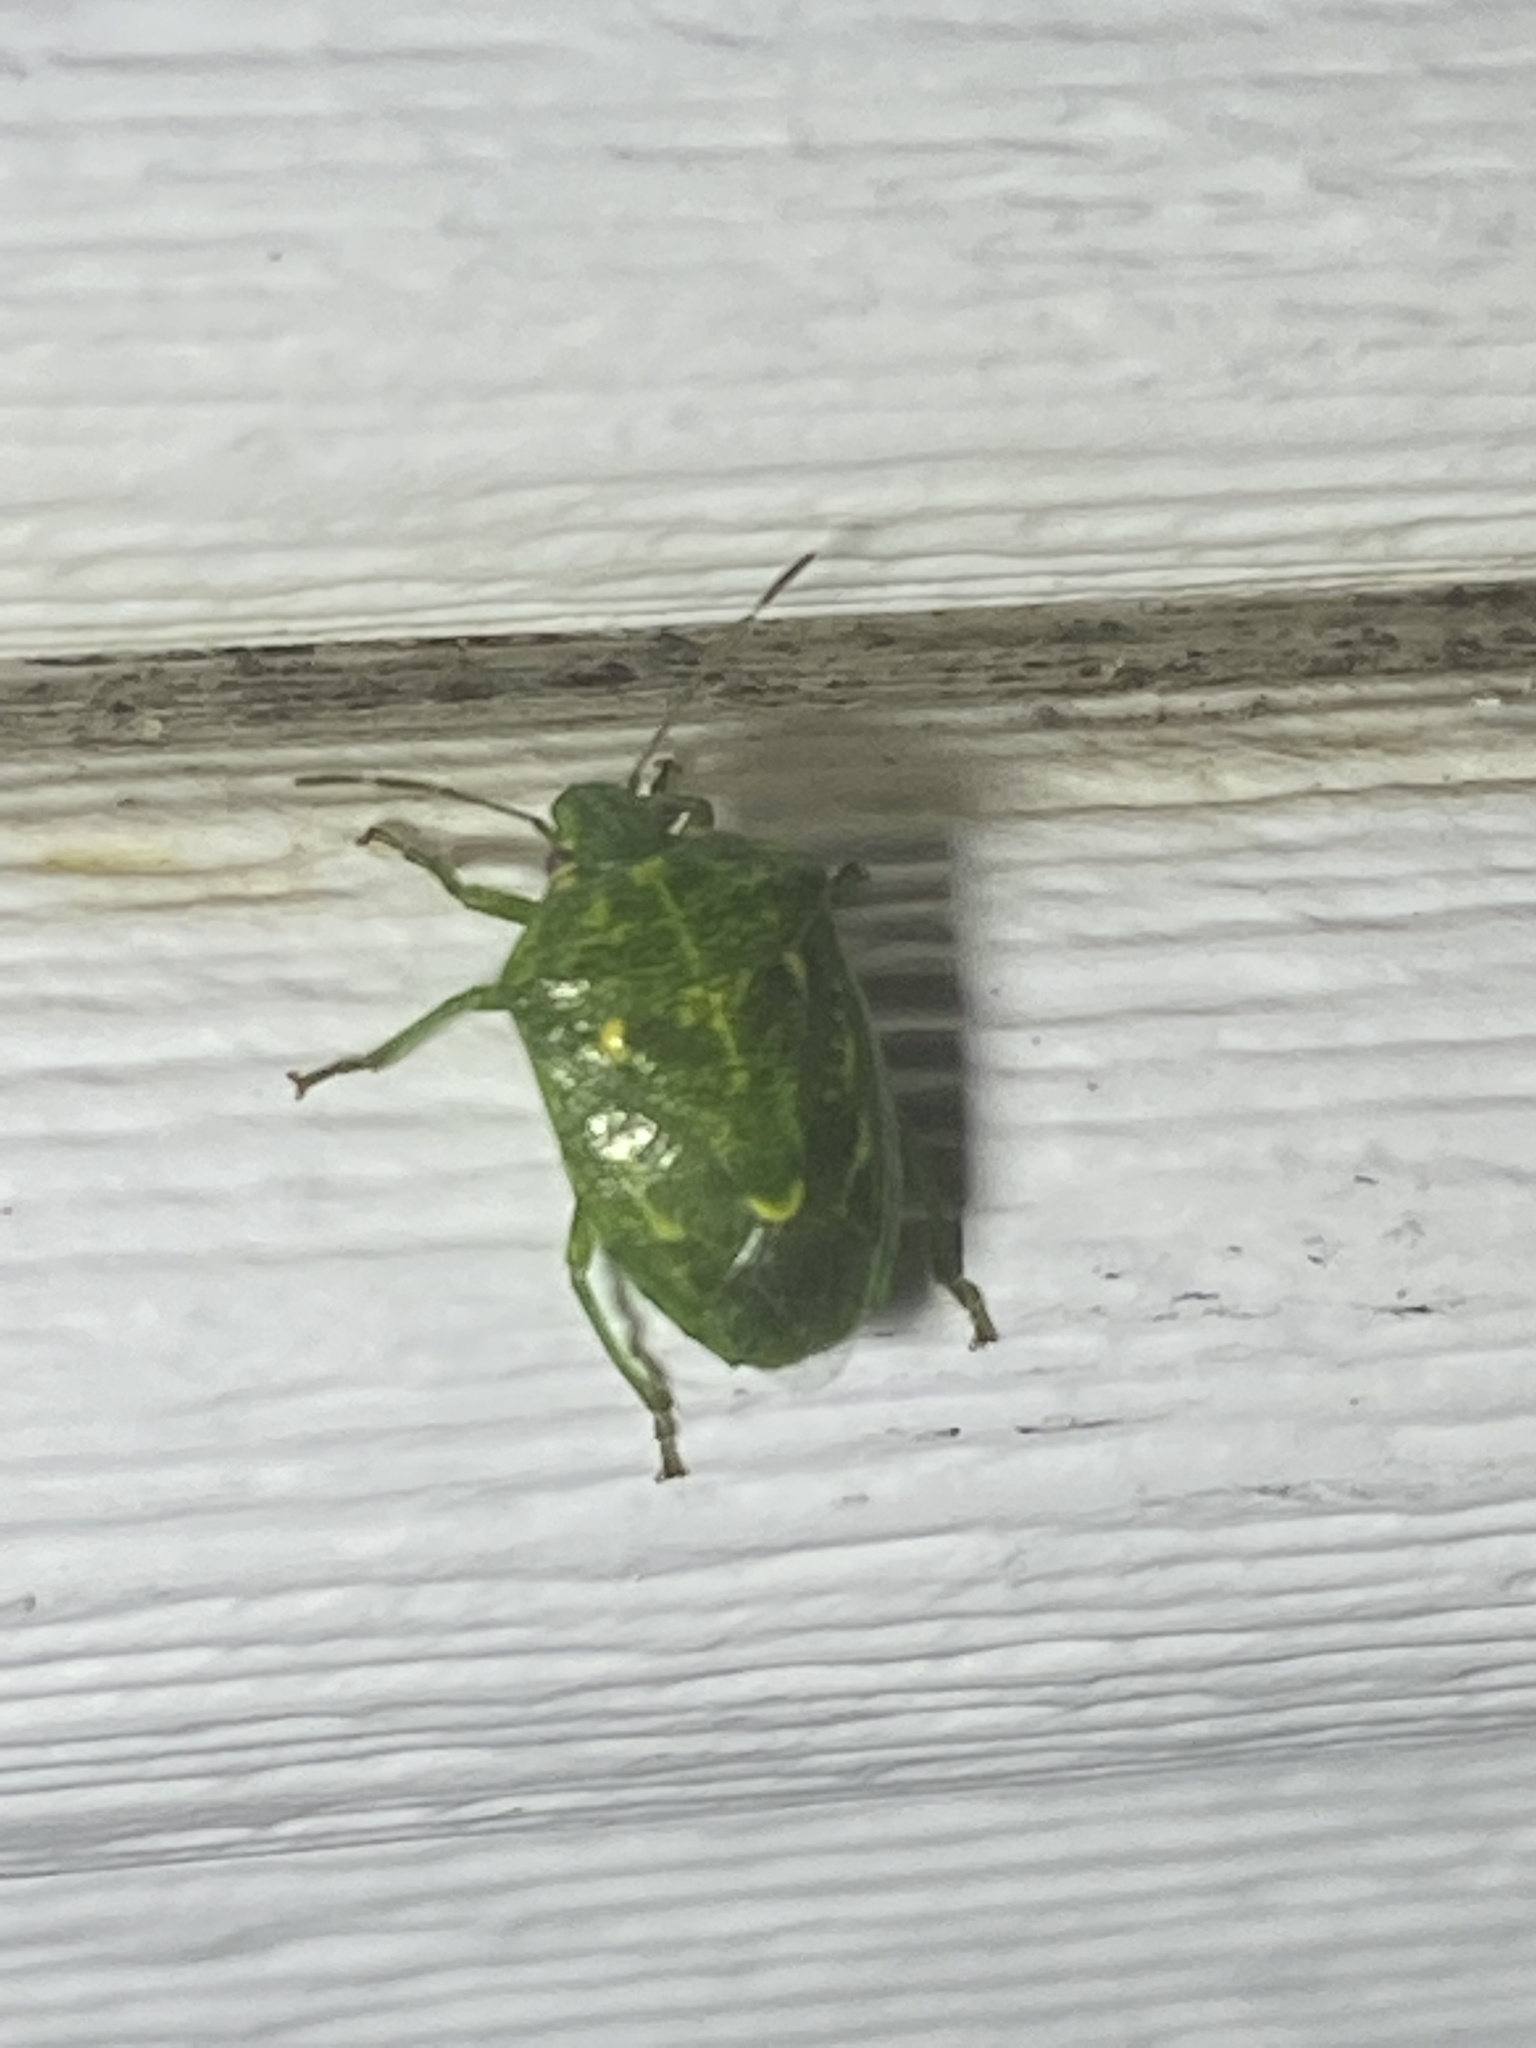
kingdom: Animalia
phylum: Arthropoda
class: Insecta
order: Hemiptera
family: Pentatomidae
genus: Banasa
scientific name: Banasa euchlora
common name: Cedar berry bug
